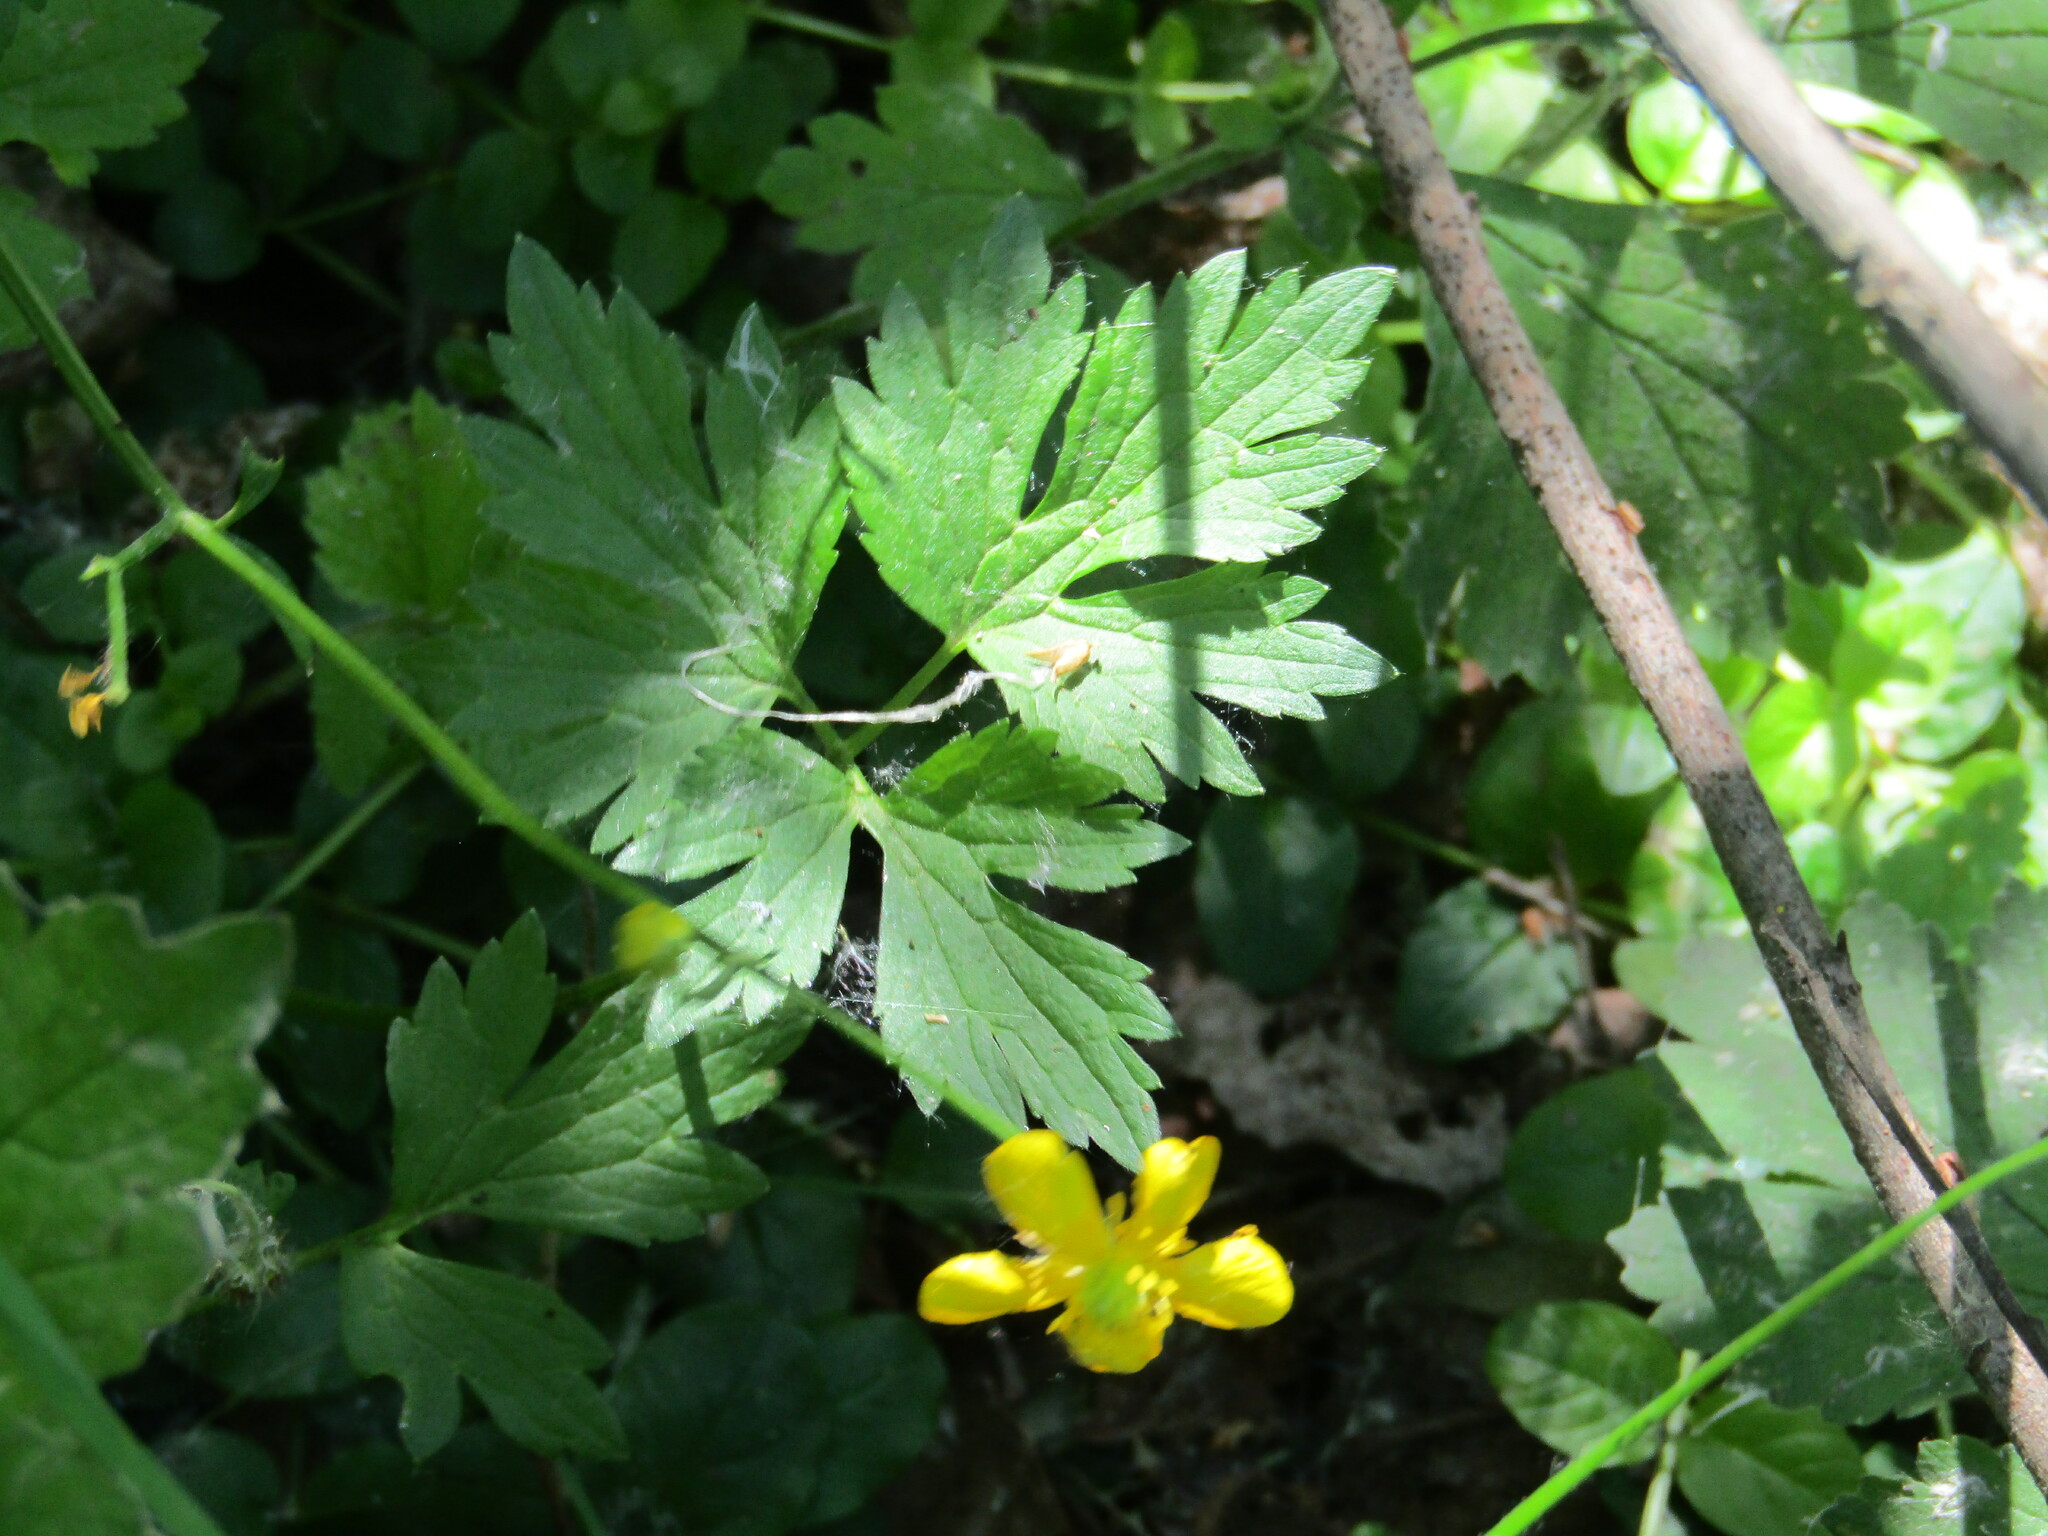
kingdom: Plantae
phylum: Tracheophyta
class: Magnoliopsida
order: Ranunculales
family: Ranunculaceae
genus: Ranunculus
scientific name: Ranunculus repens
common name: Creeping buttercup
